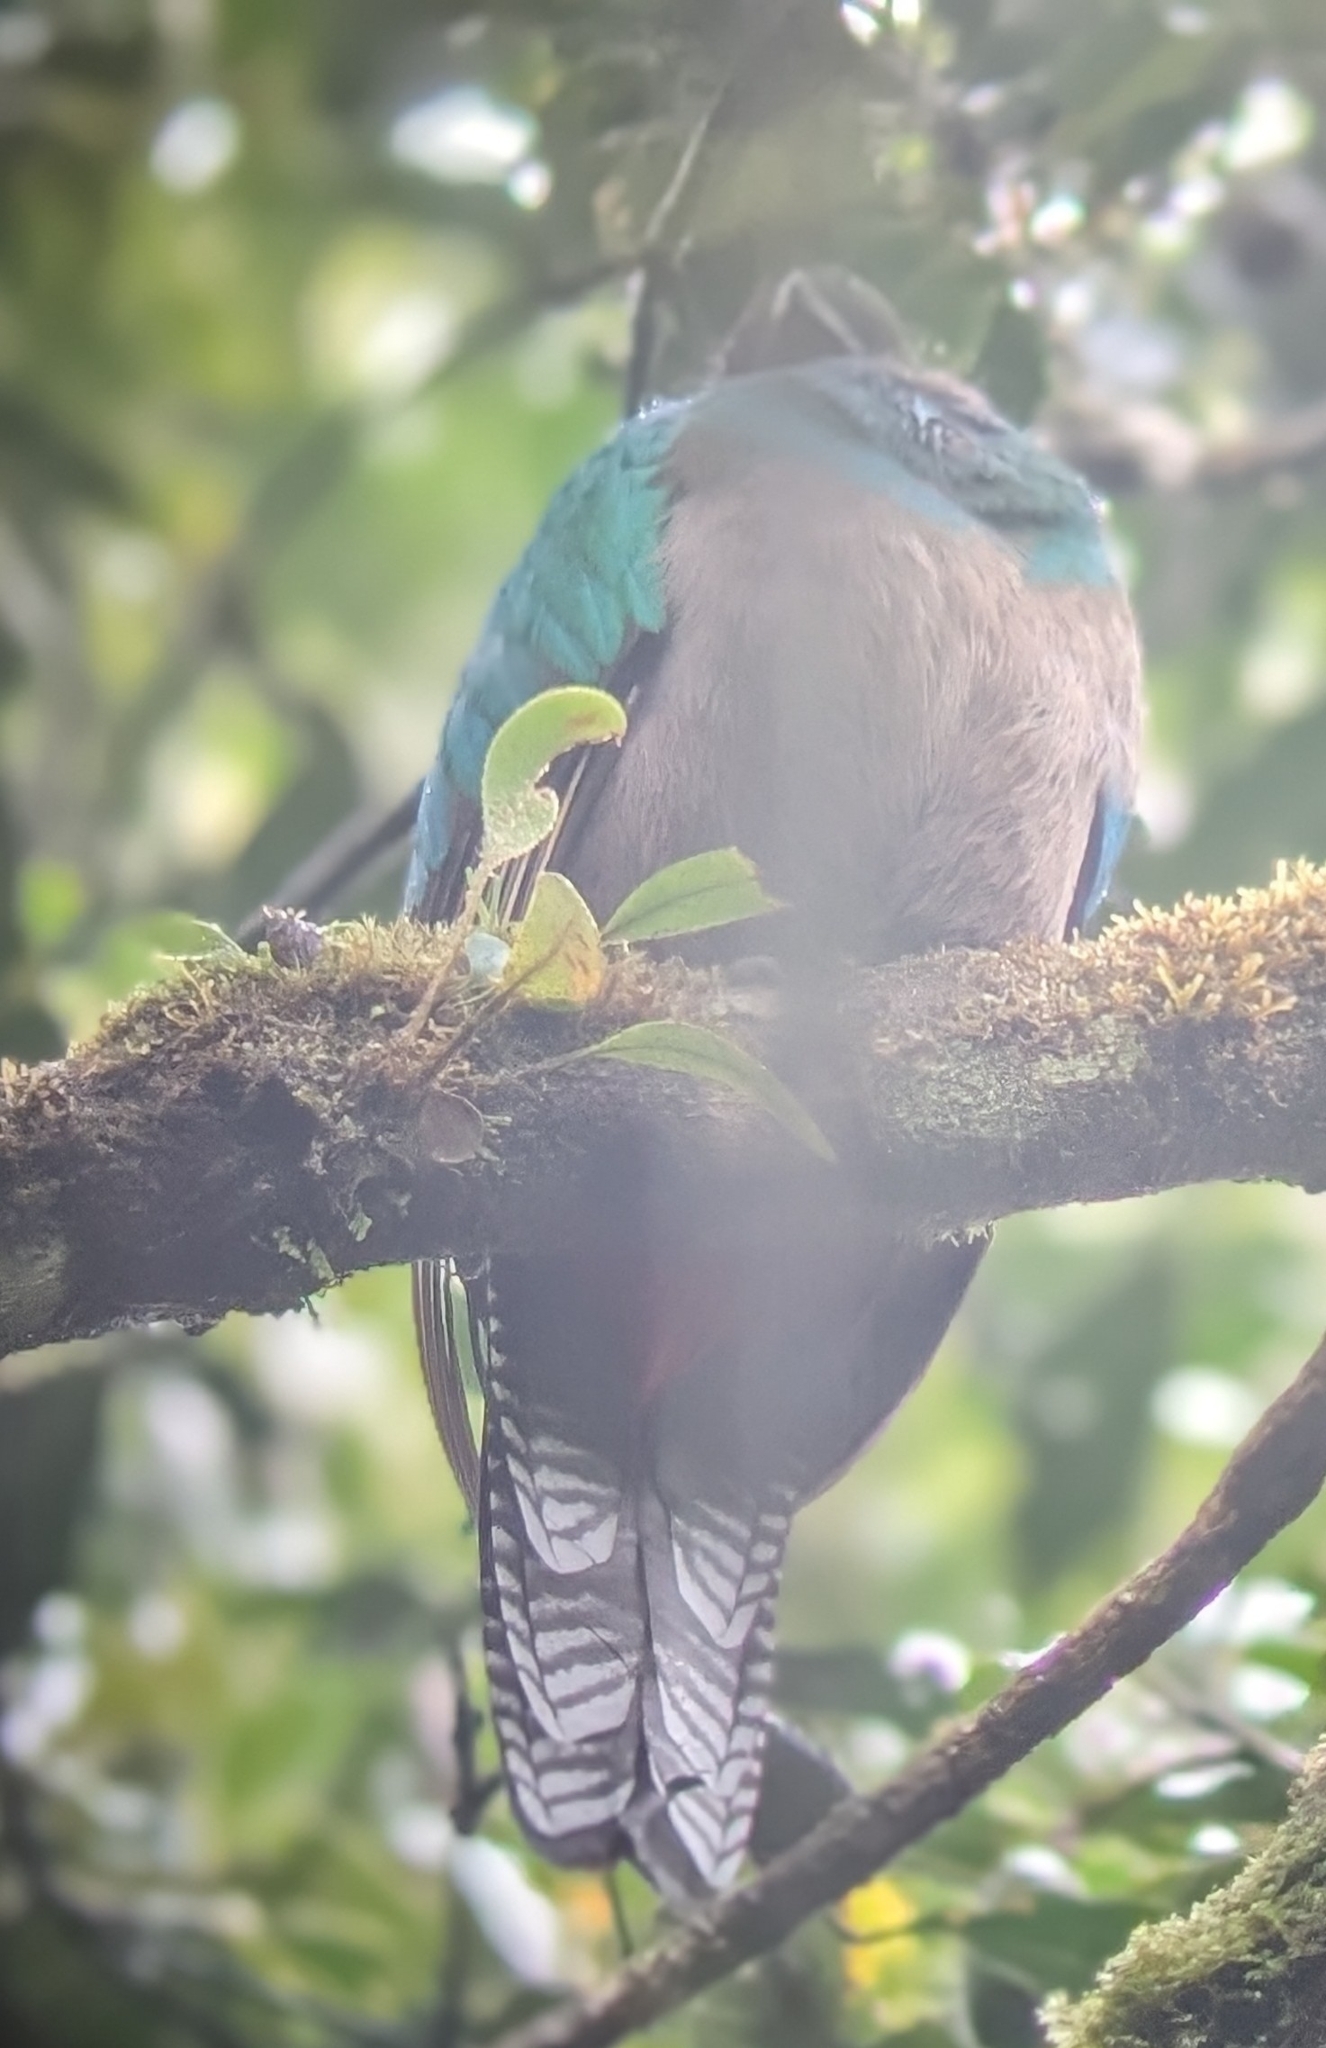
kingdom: Animalia
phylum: Chordata
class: Aves
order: Trogoniformes
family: Trogonidae
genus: Pharomachrus
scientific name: Pharomachrus mocinno
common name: Resplendent quetzal
